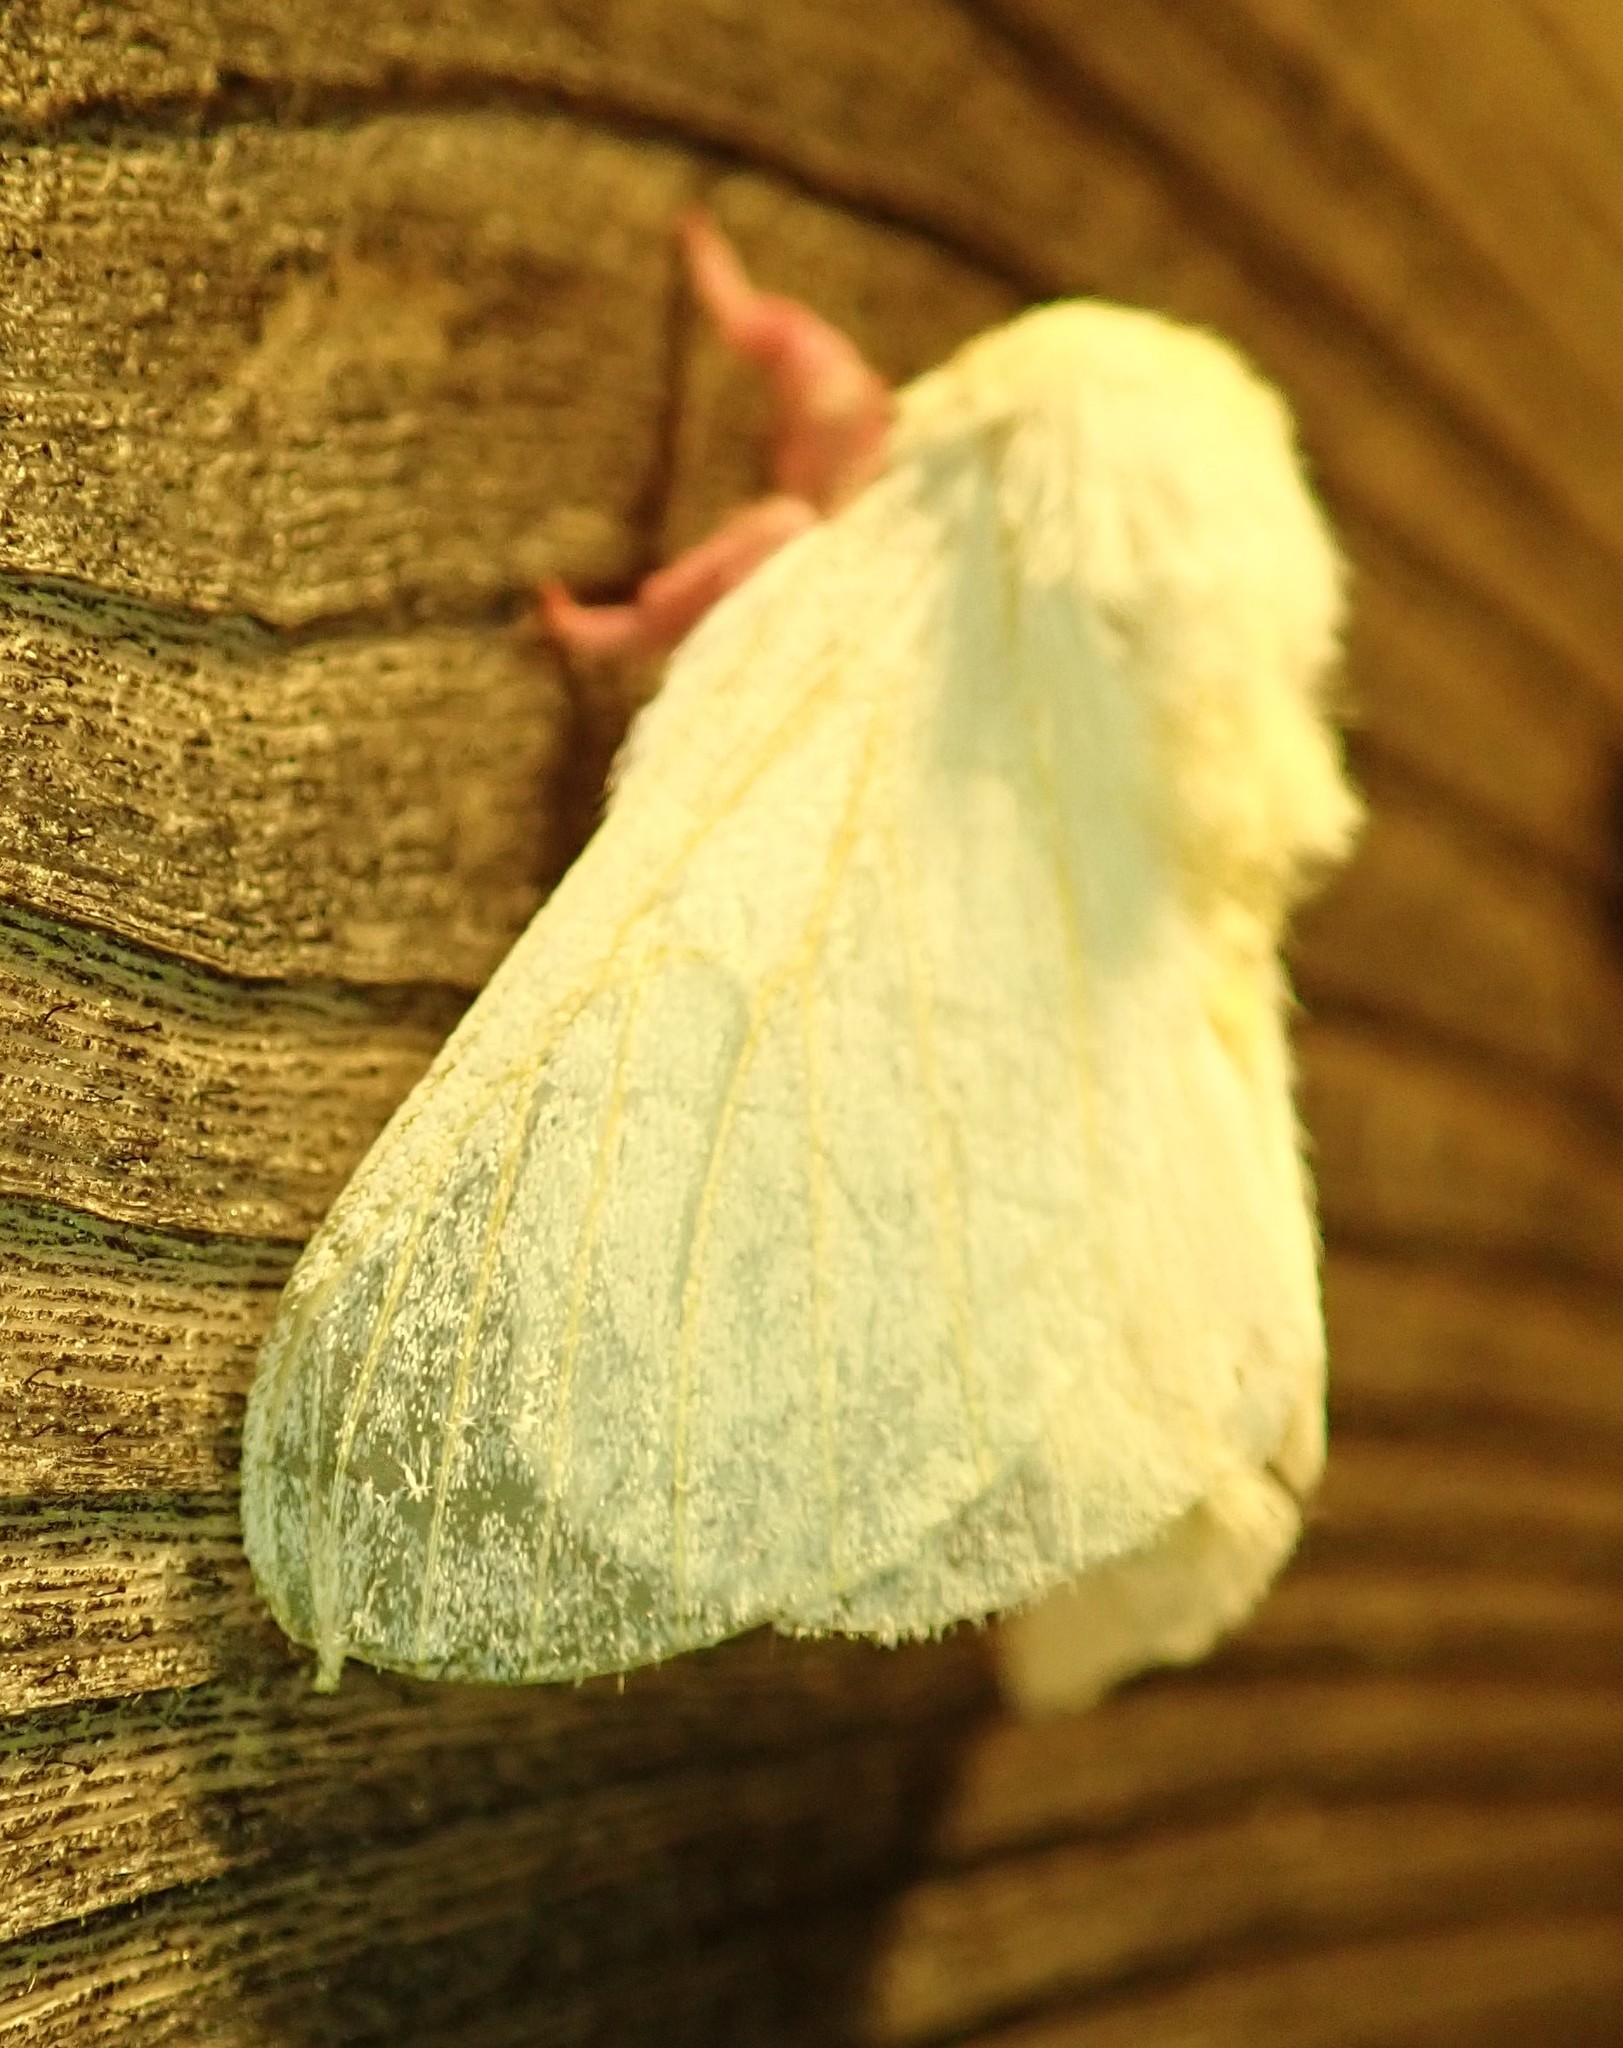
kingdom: Animalia
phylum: Arthropoda
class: Insecta
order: Lepidoptera
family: Saturniidae
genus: Dryocampa
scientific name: Dryocampa rubicunda
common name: Rosy maple moth
